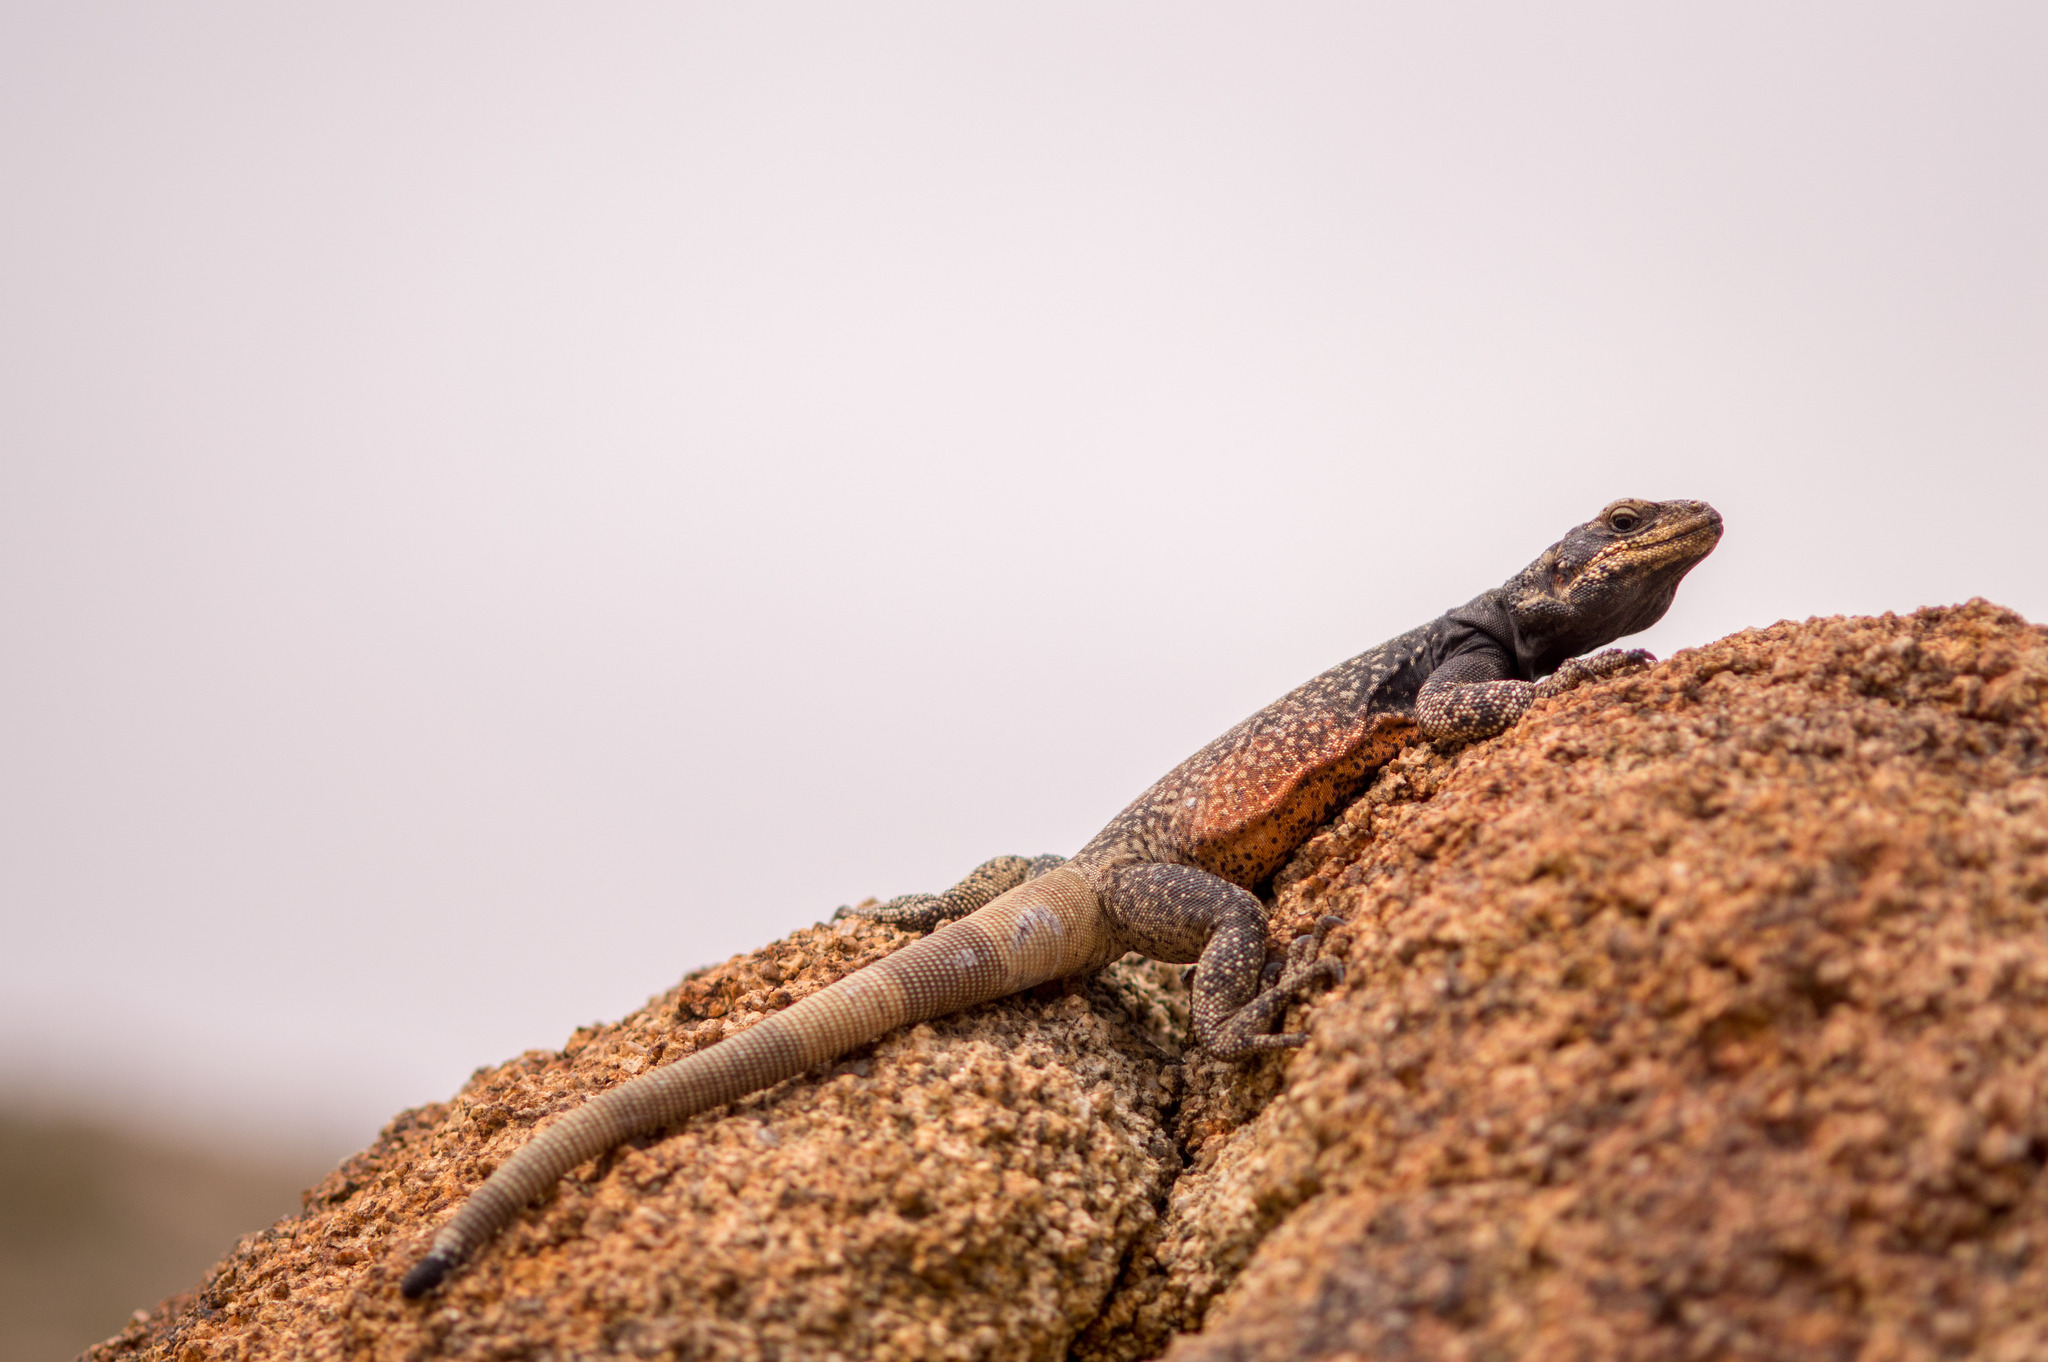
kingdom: Animalia
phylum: Chordata
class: Squamata
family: Iguanidae
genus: Sauromalus
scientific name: Sauromalus ater
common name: Northern chuckwalla
